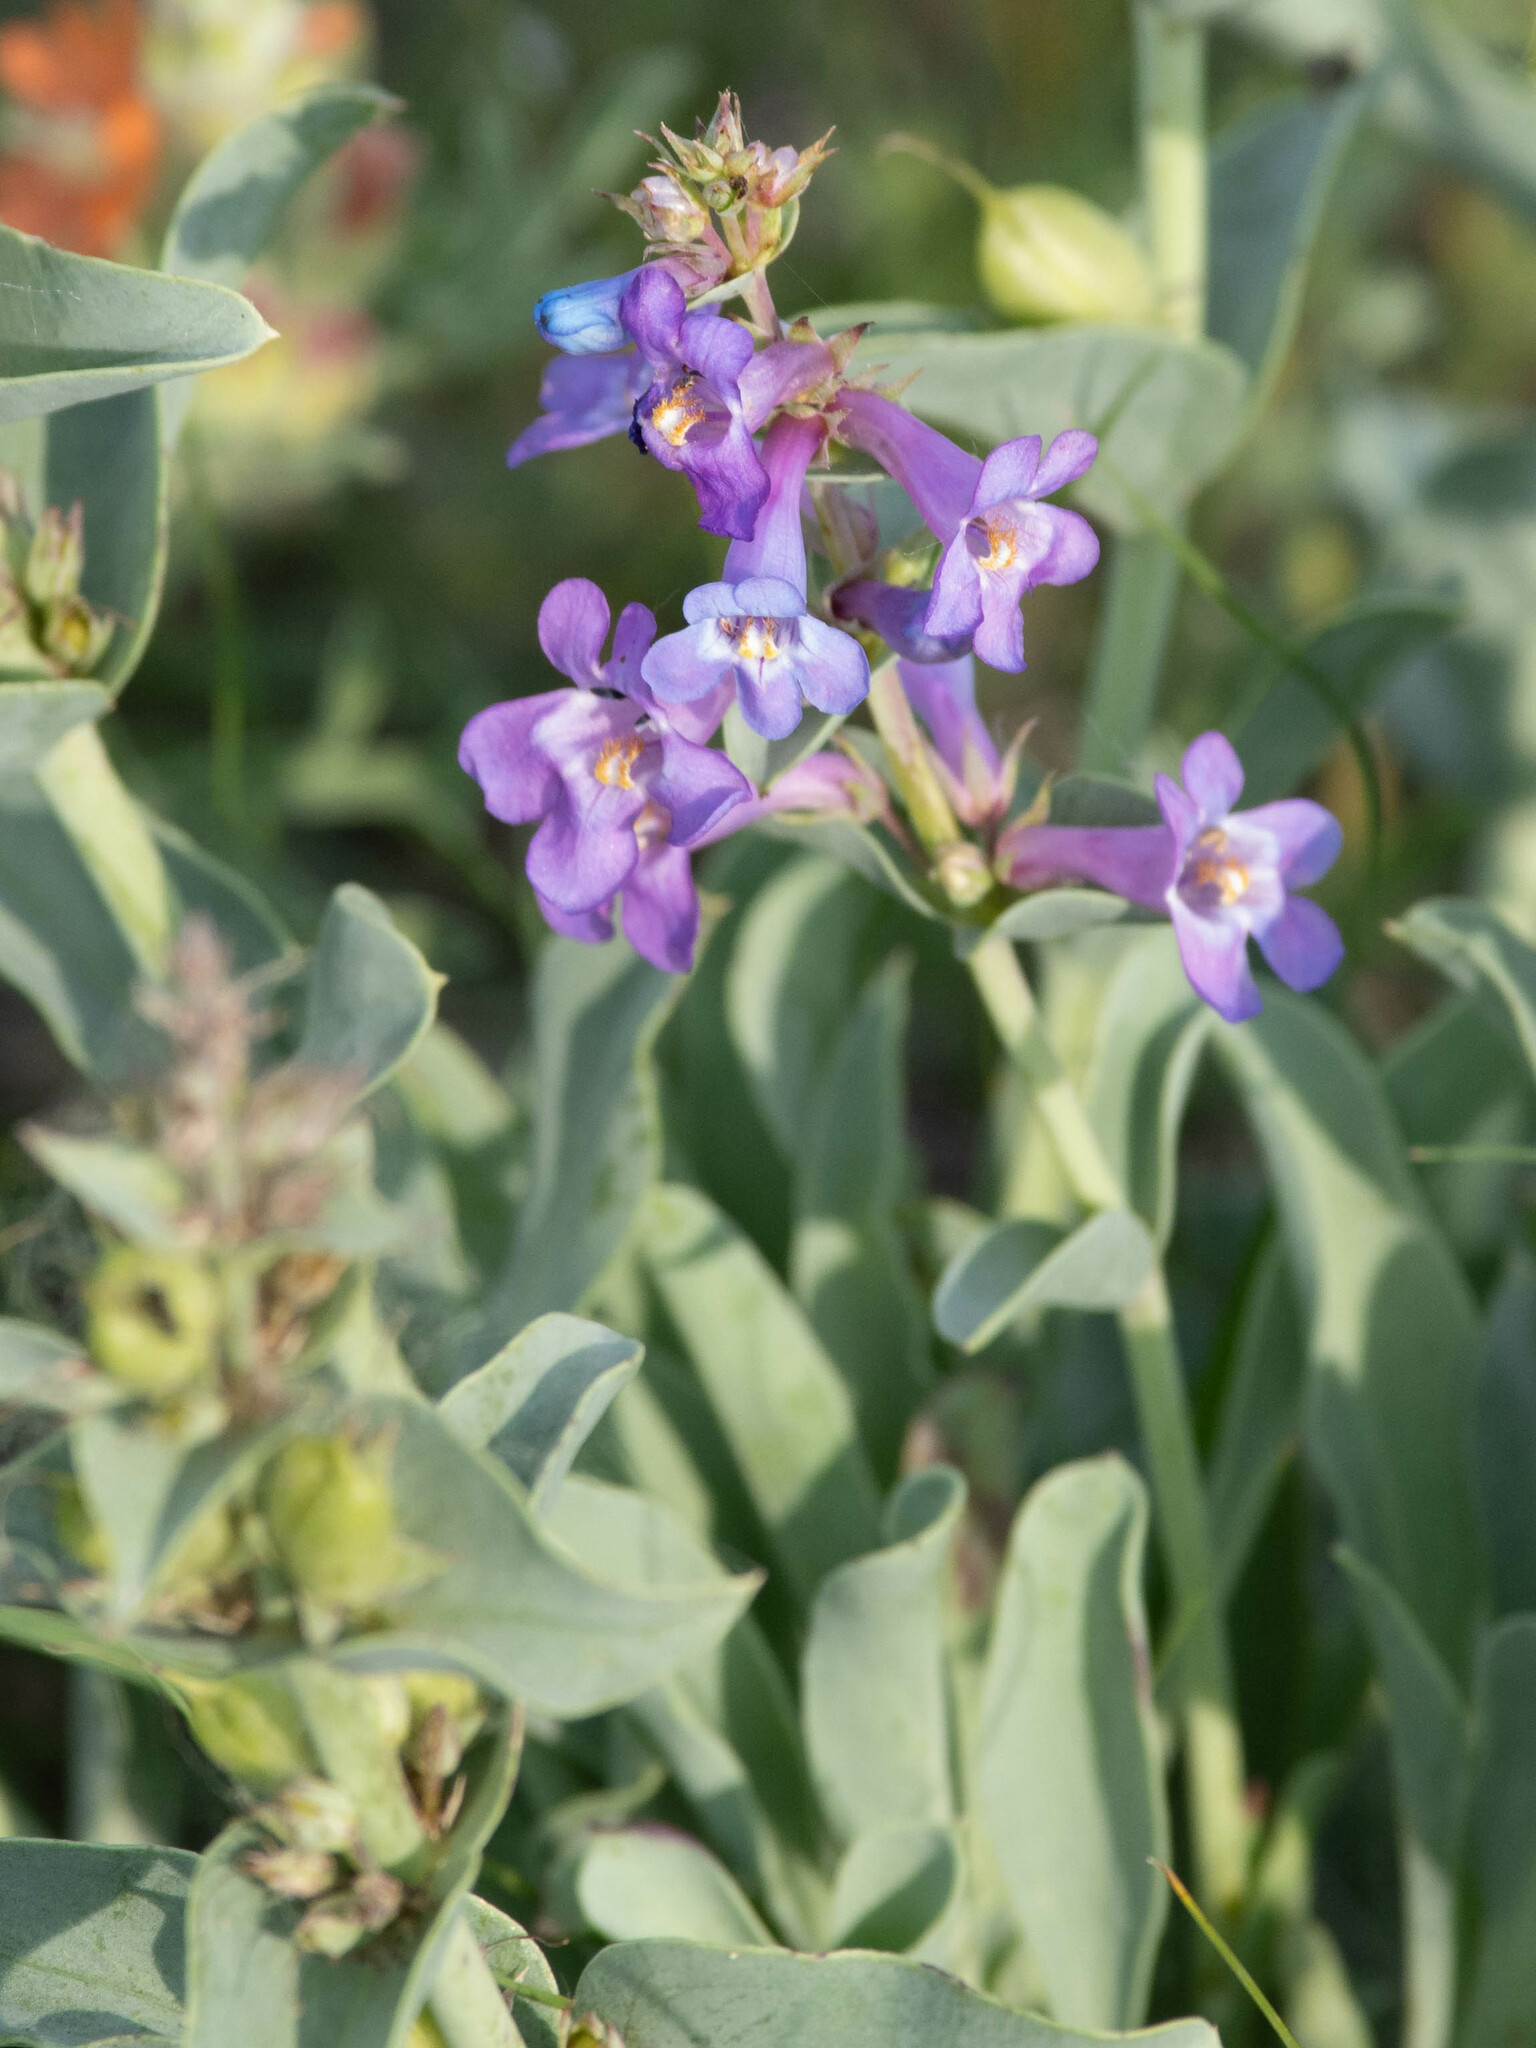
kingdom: Plantae
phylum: Tracheophyta
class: Magnoliopsida
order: Lamiales
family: Plantaginaceae
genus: Penstemon
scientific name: Penstemon nitidus
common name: Shining penstemon
